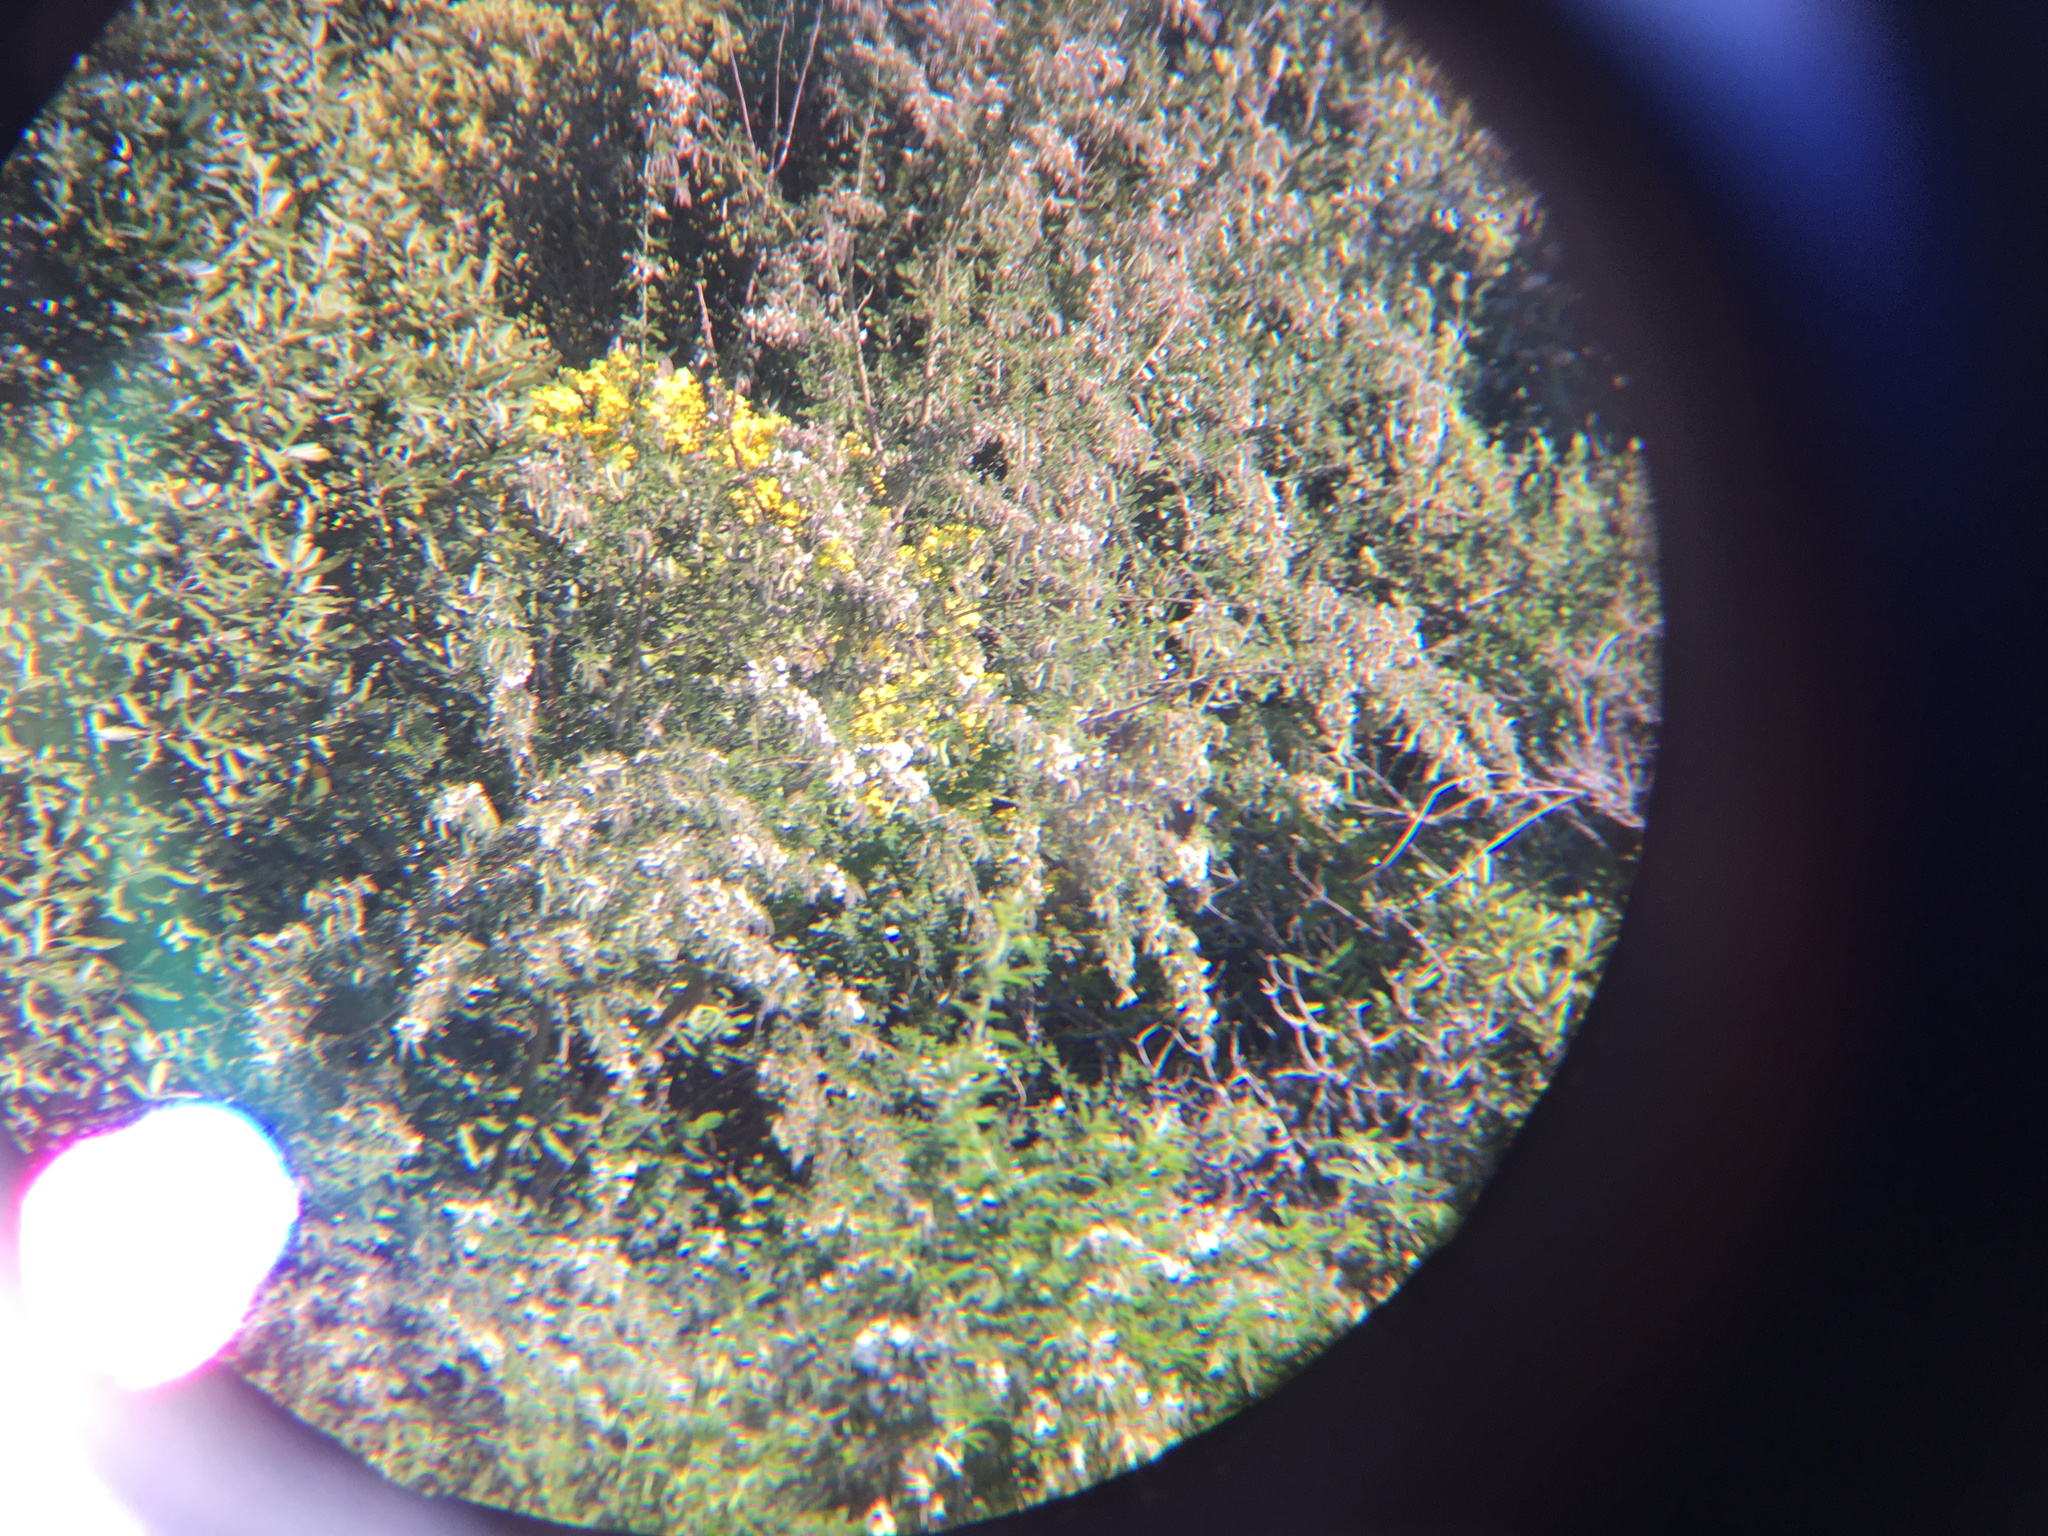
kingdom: Plantae
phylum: Tracheophyta
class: Magnoliopsida
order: Asterales
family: Asteraceae
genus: Osteospermum
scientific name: Osteospermum moniliferum
